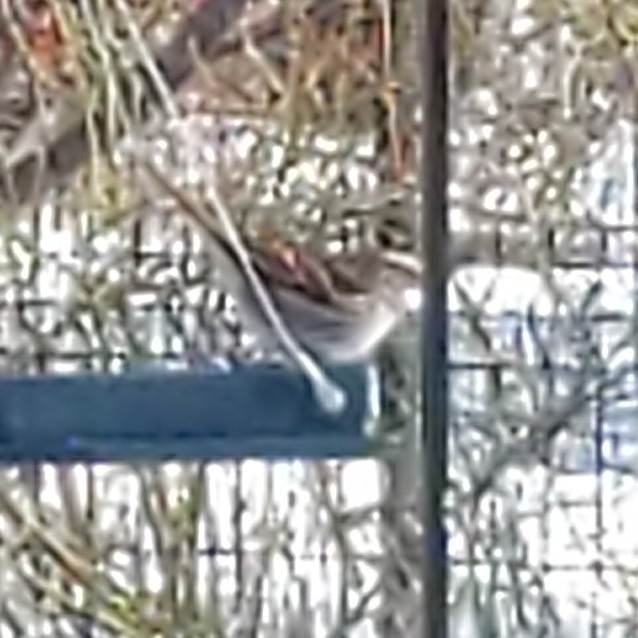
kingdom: Animalia
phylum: Chordata
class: Aves
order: Passeriformes
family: Passerellidae
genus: Zonotrichia
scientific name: Zonotrichia albicollis
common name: White-throated sparrow
